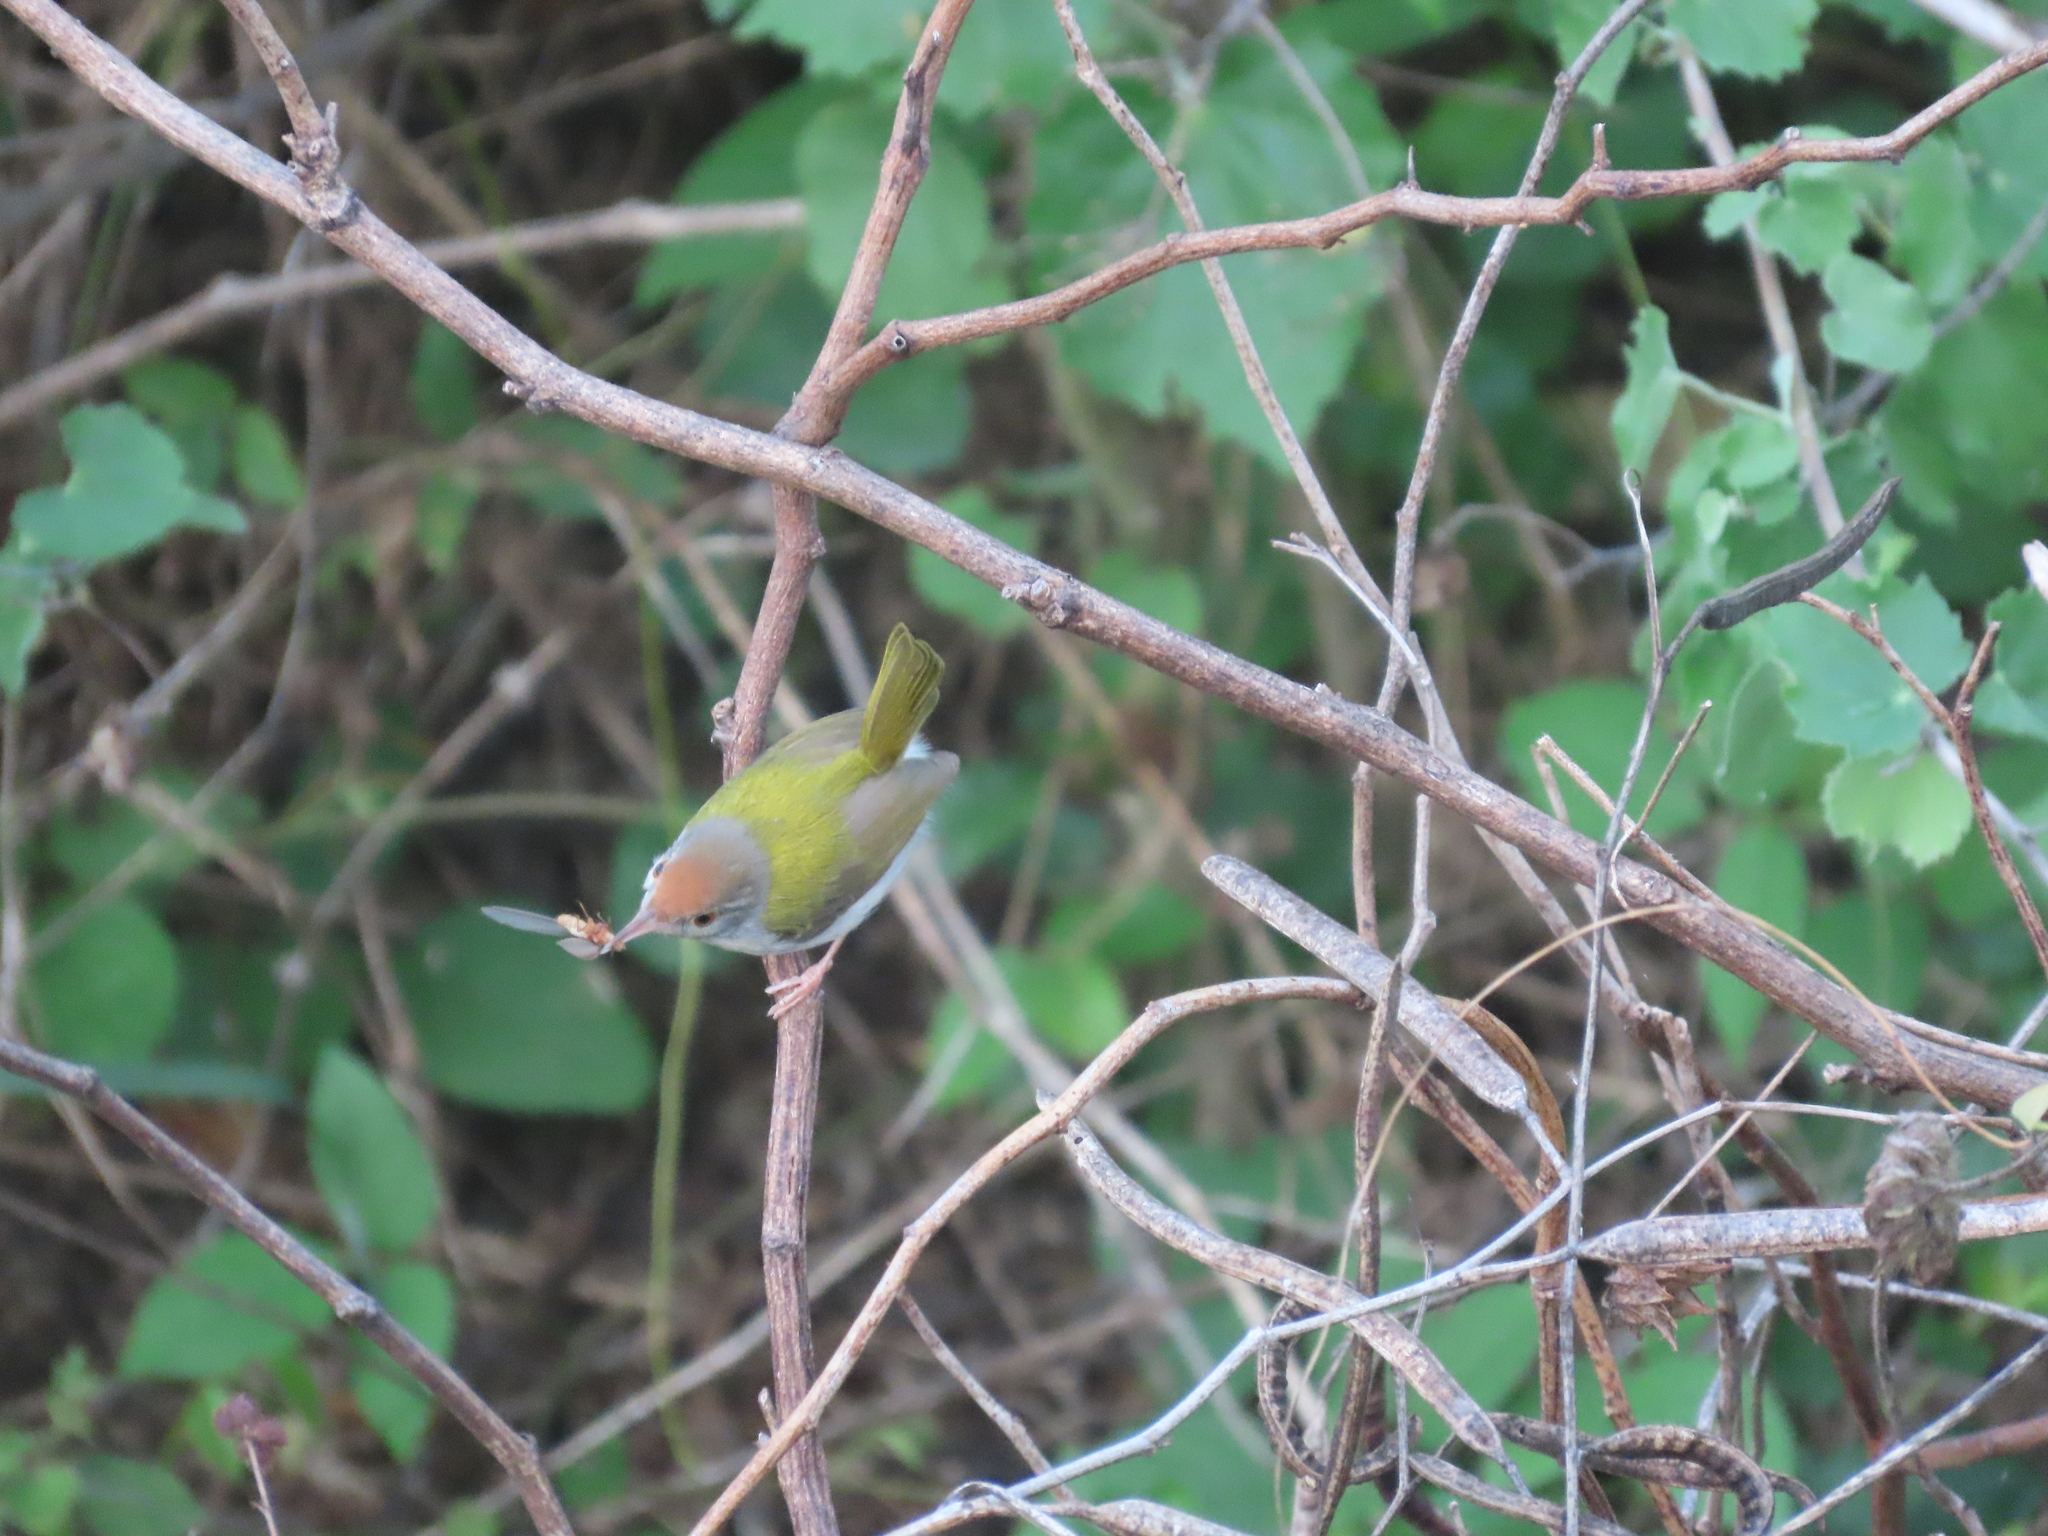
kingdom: Animalia
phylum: Chordata
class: Aves
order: Passeriformes
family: Cisticolidae
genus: Orthotomus
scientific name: Orthotomus sutorius
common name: Common tailorbird
